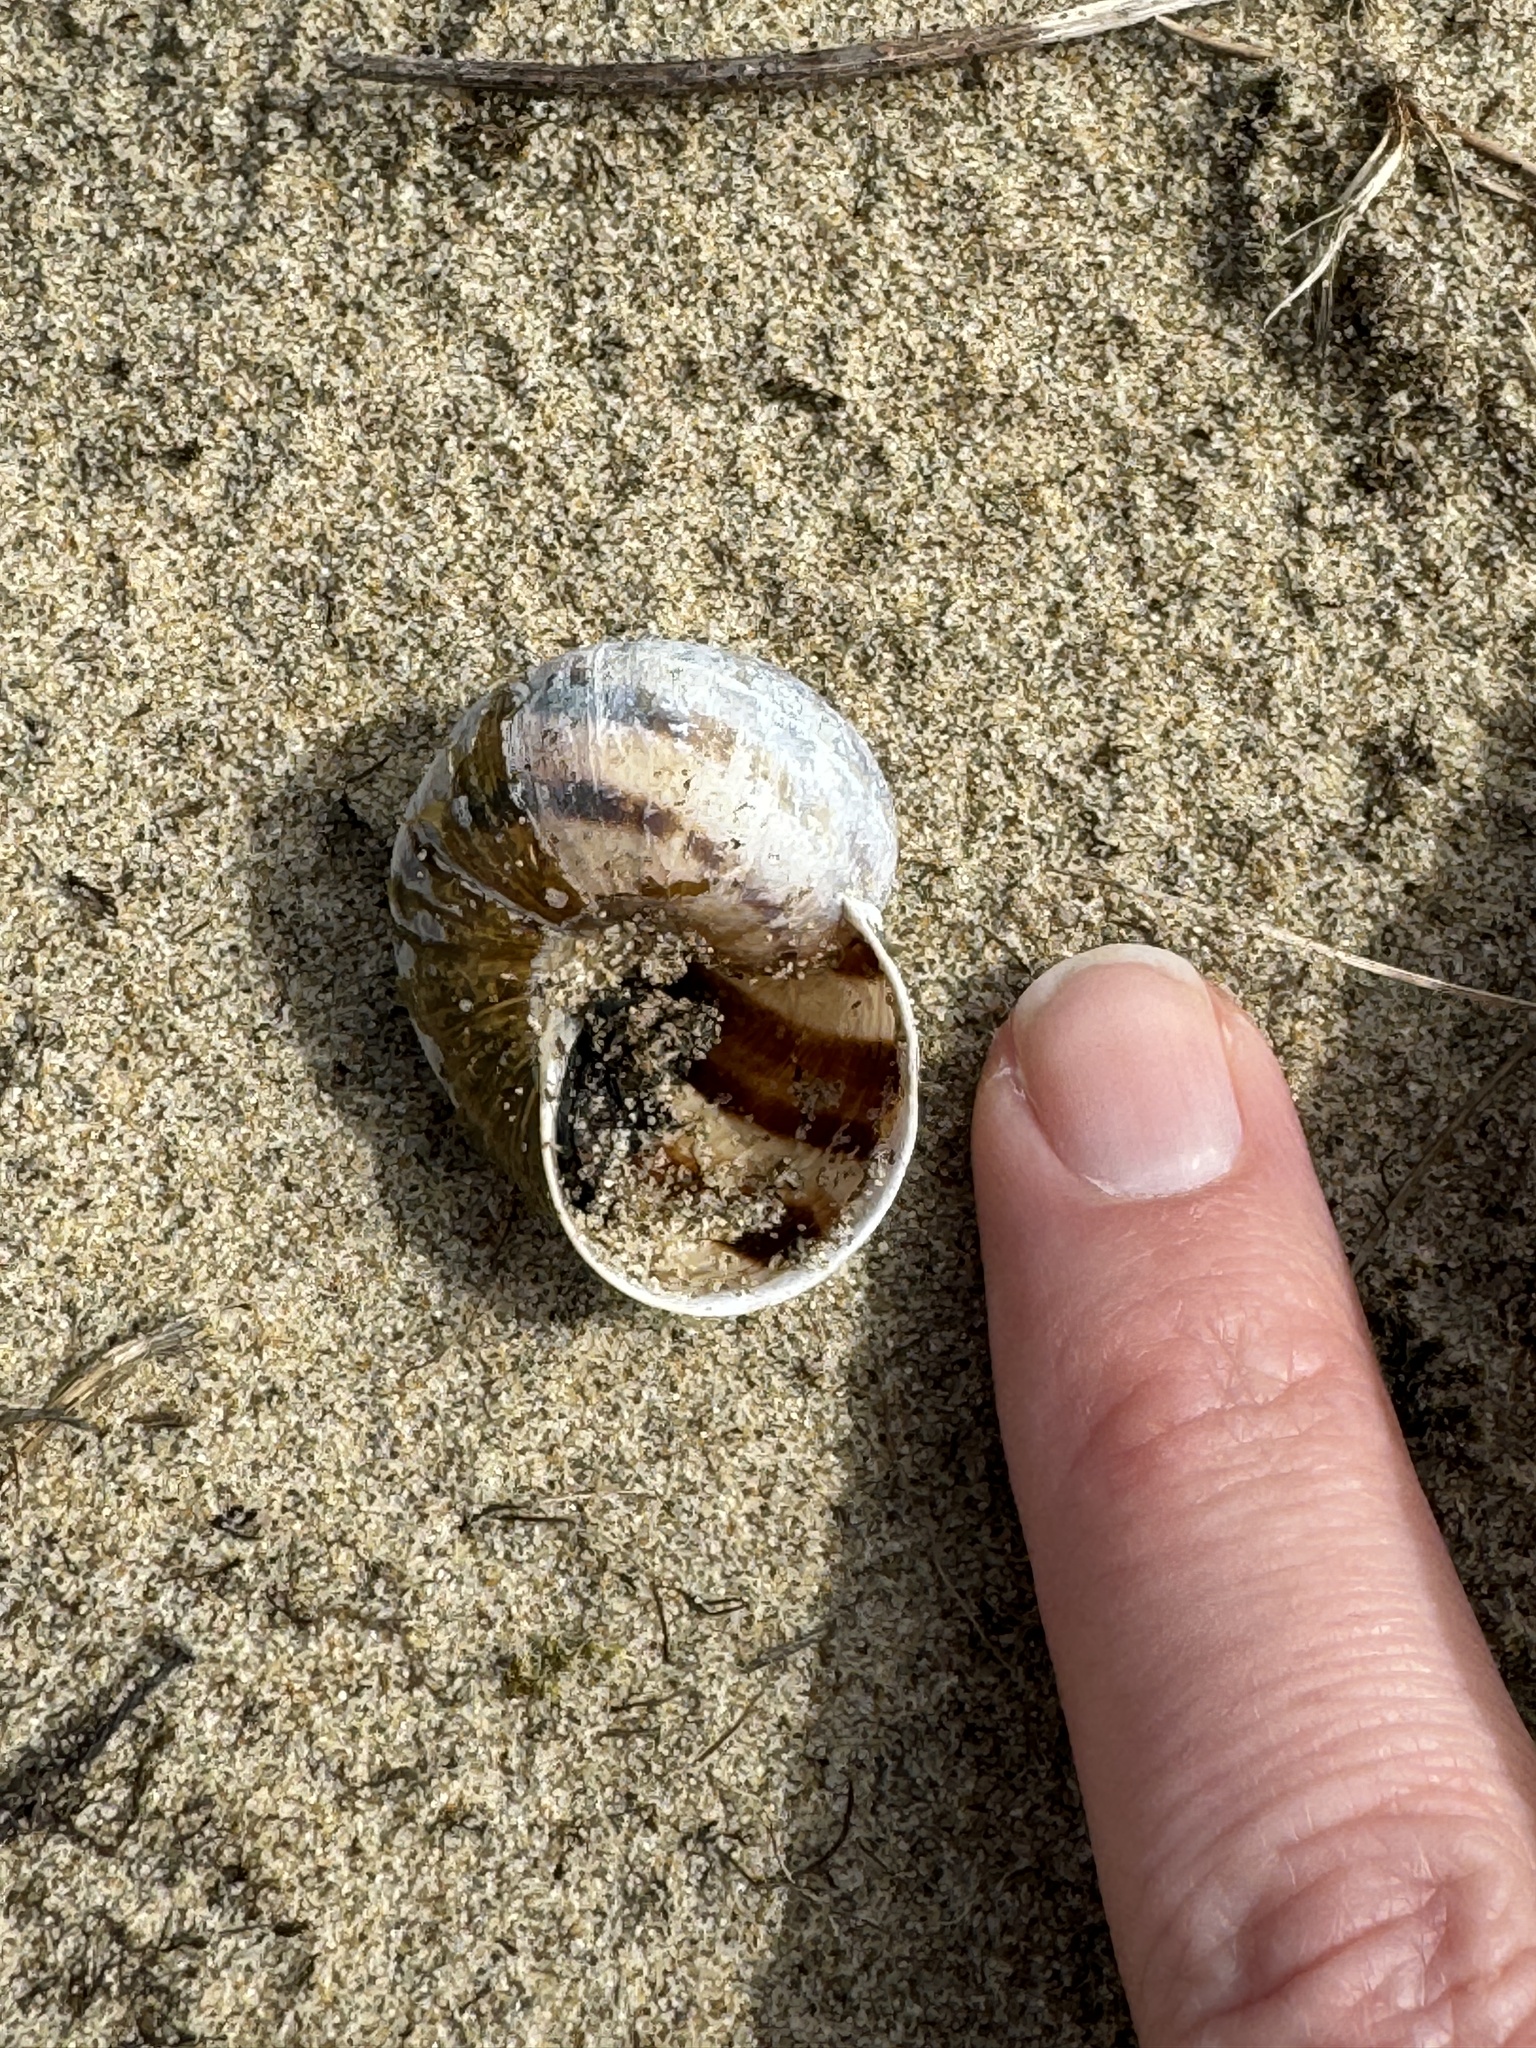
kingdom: Animalia
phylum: Mollusca
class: Gastropoda
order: Stylommatophora
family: Helicidae
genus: Cornu
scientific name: Cornu aspersum
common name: Brown garden snail
